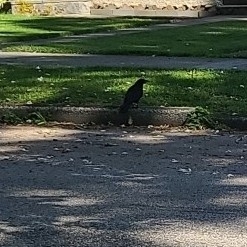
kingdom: Animalia
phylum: Chordata
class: Aves
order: Passeriformes
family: Corvidae
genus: Corvus
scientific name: Corvus brachyrhynchos
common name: American crow
